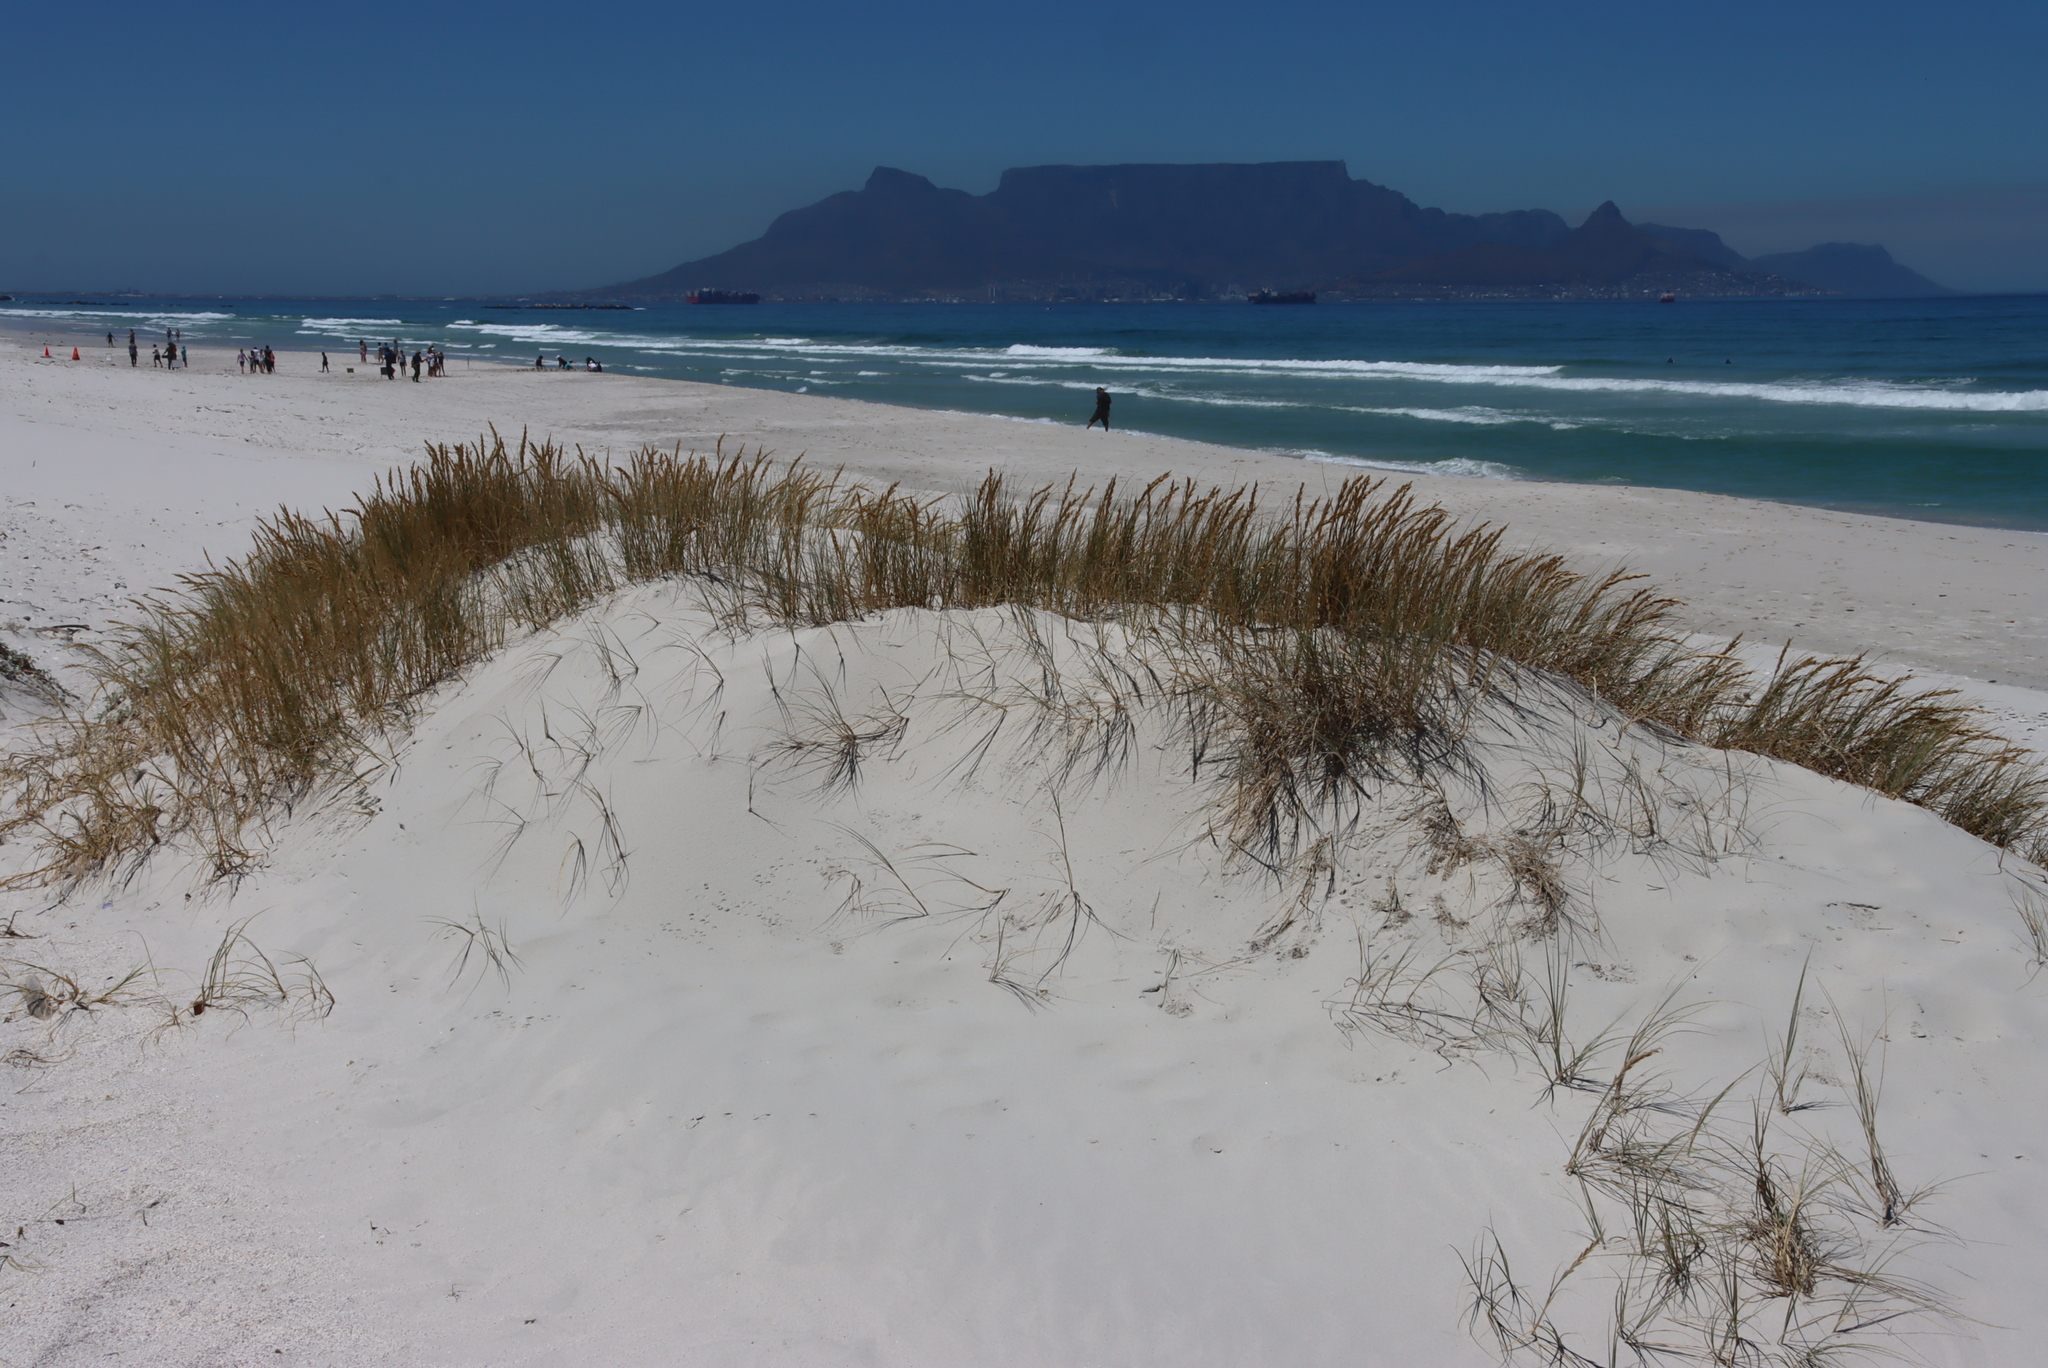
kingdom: Plantae
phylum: Tracheophyta
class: Liliopsida
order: Poales
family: Poaceae
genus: Thinopyrum
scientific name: Thinopyrum distichum
